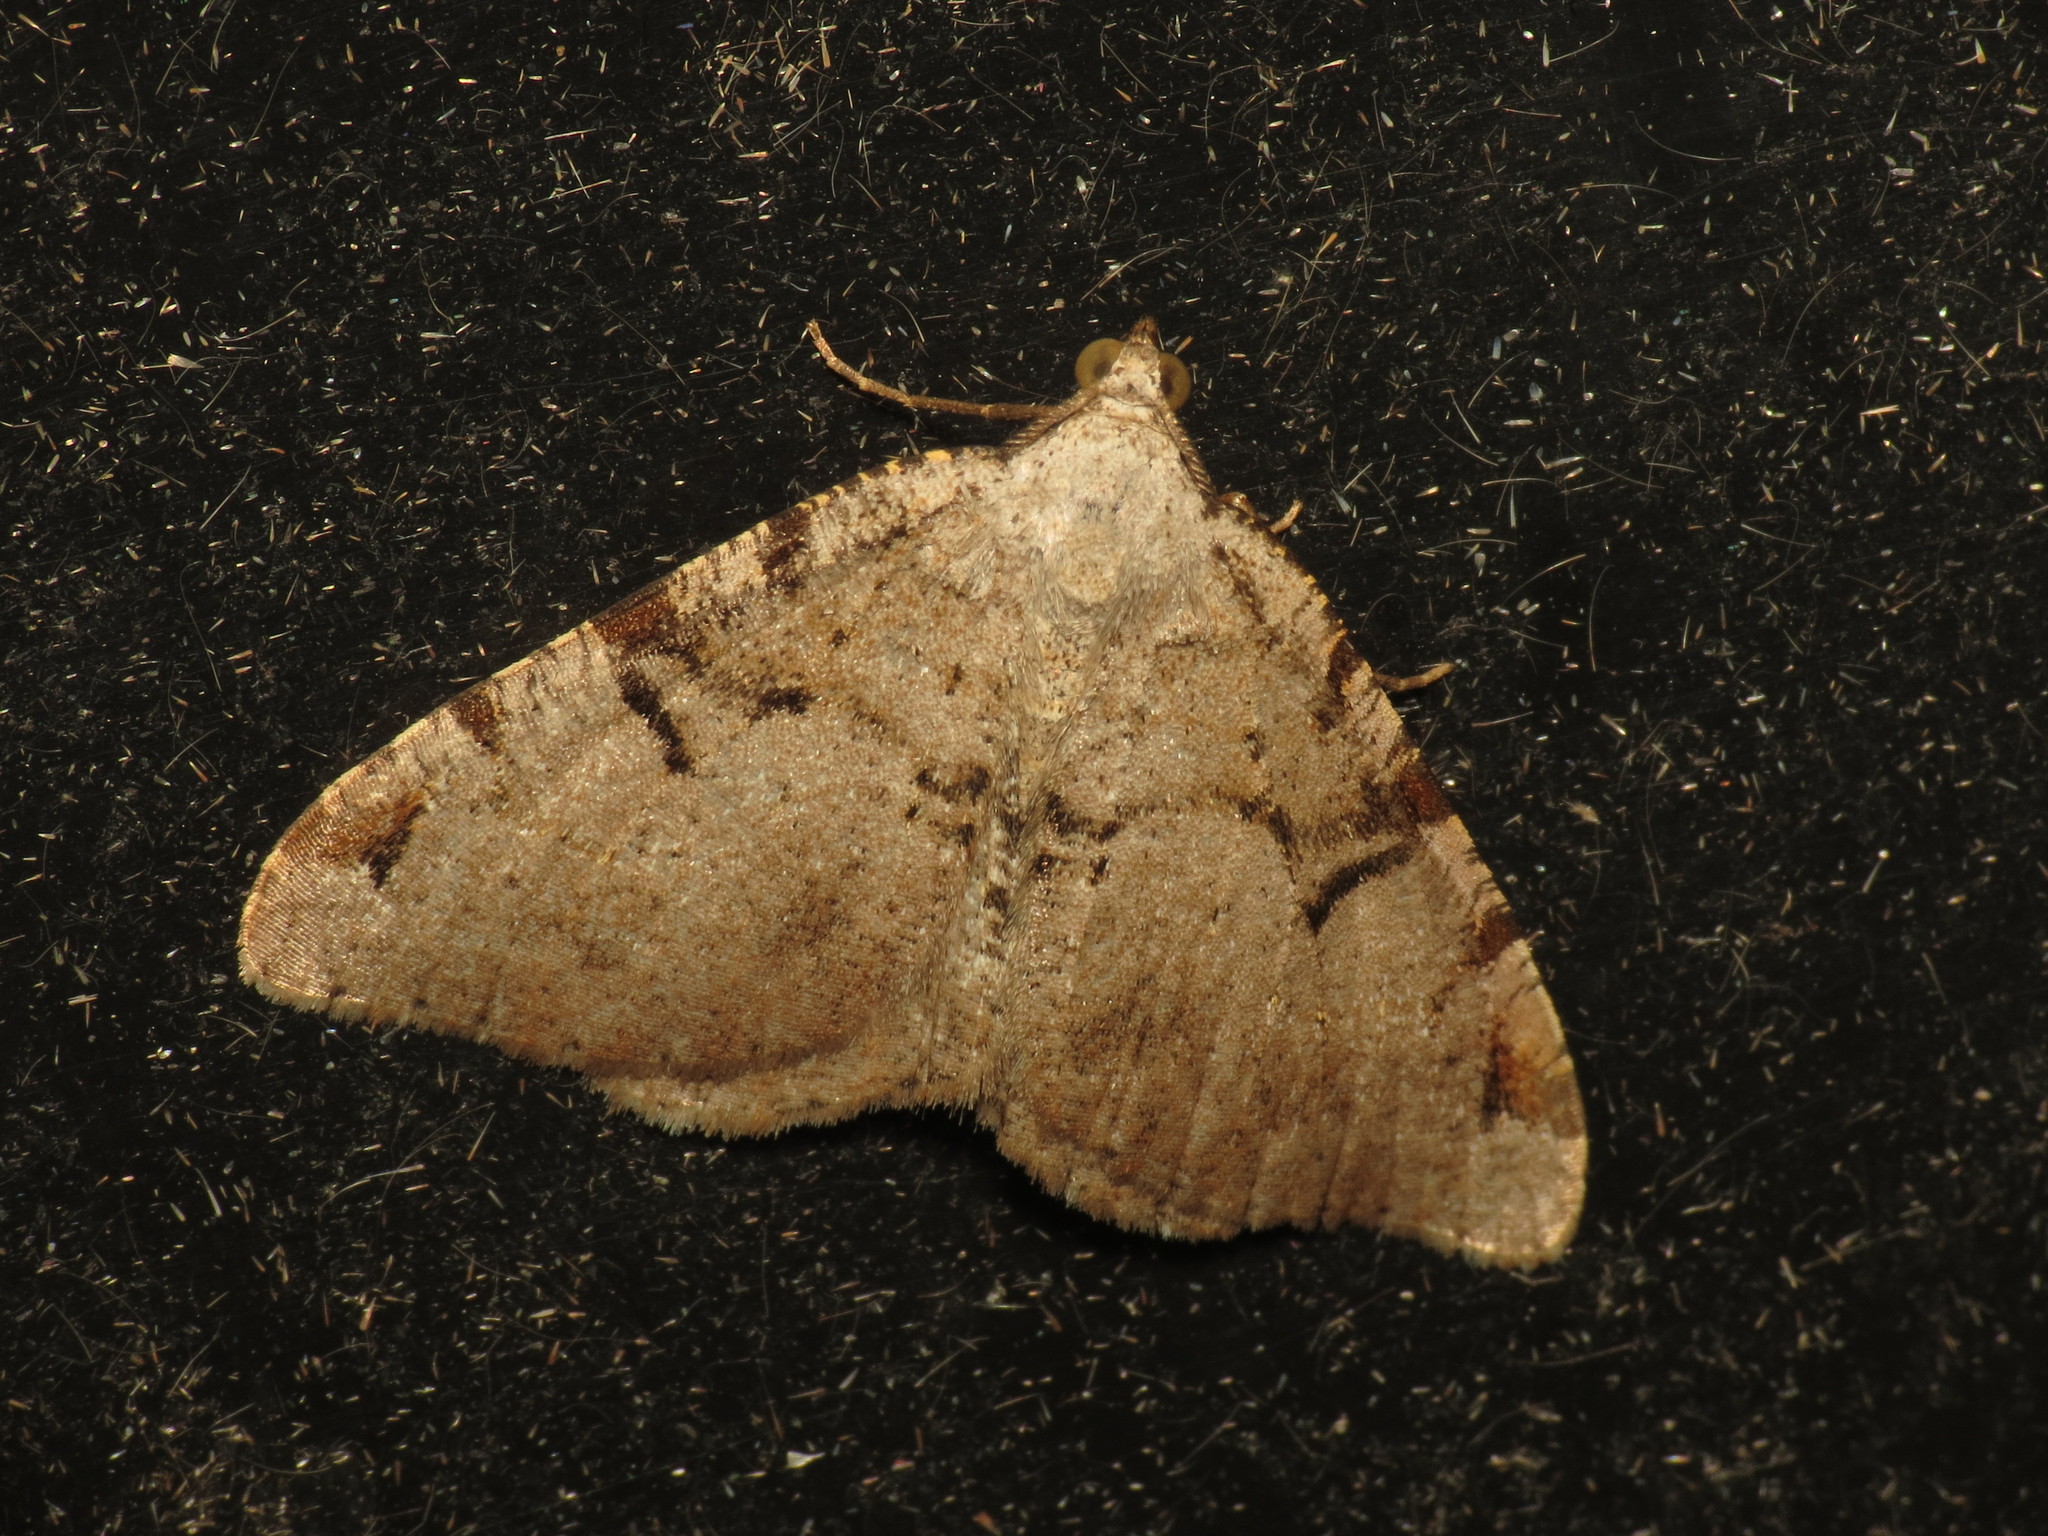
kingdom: Animalia
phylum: Arthropoda
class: Insecta
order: Lepidoptera
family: Geometridae
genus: Macaria
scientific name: Macaria wauaria
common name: V-moth
